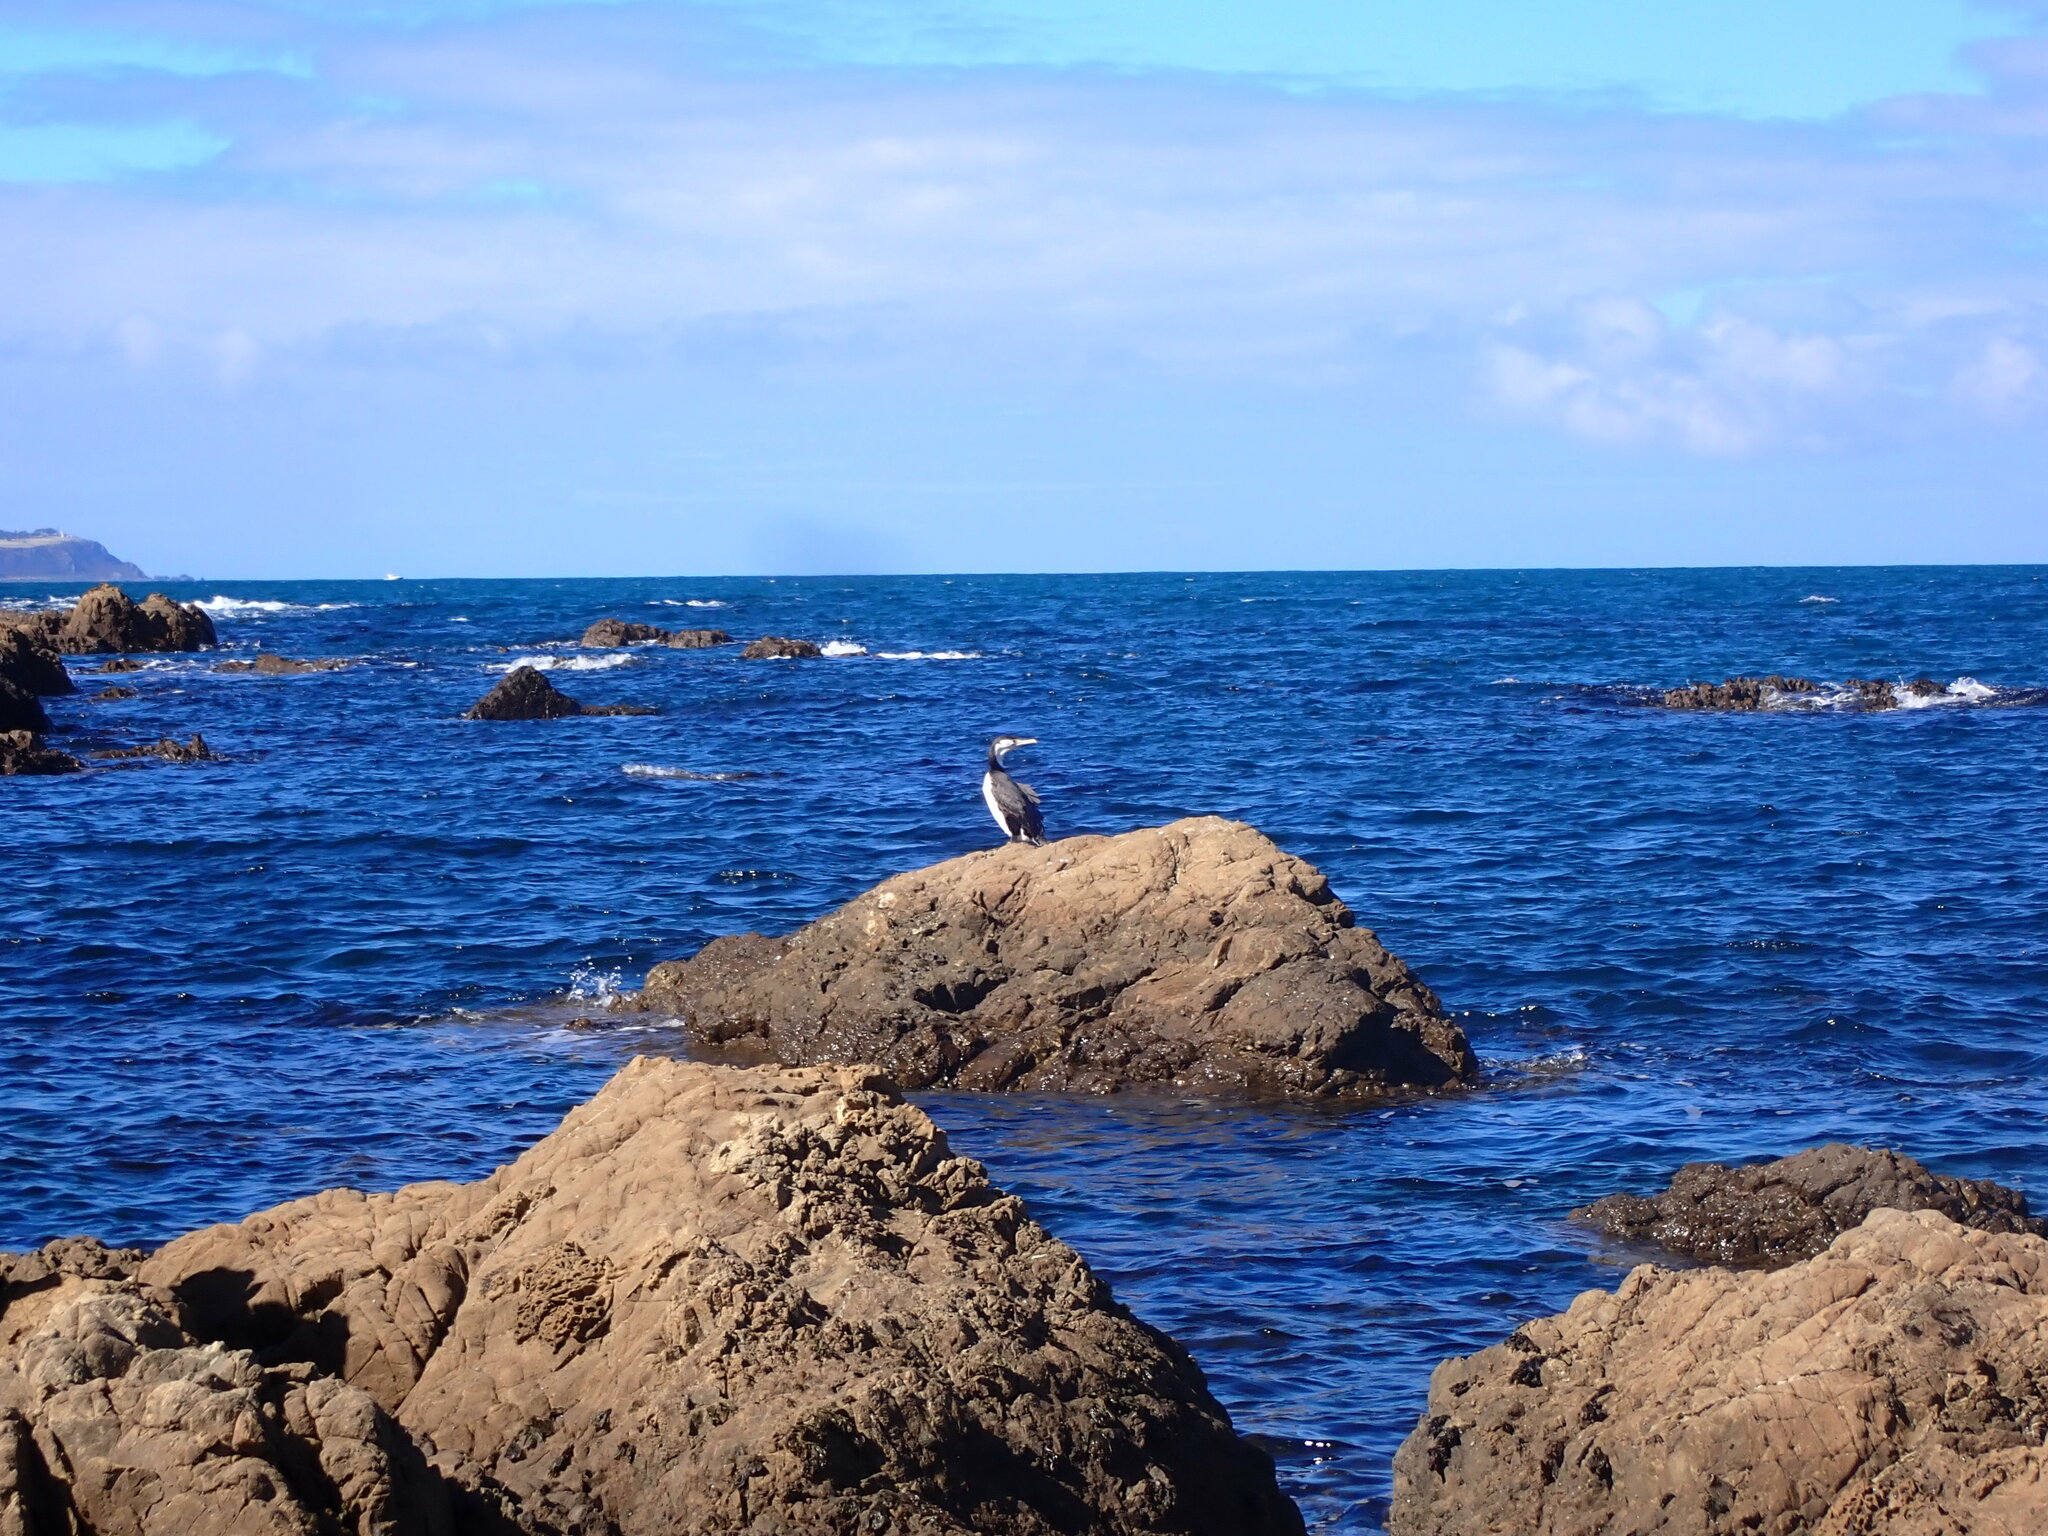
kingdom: Animalia
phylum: Chordata
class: Aves
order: Suliformes
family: Phalacrocoracidae
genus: Phalacrocorax
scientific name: Phalacrocorax varius
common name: Pied cormorant
